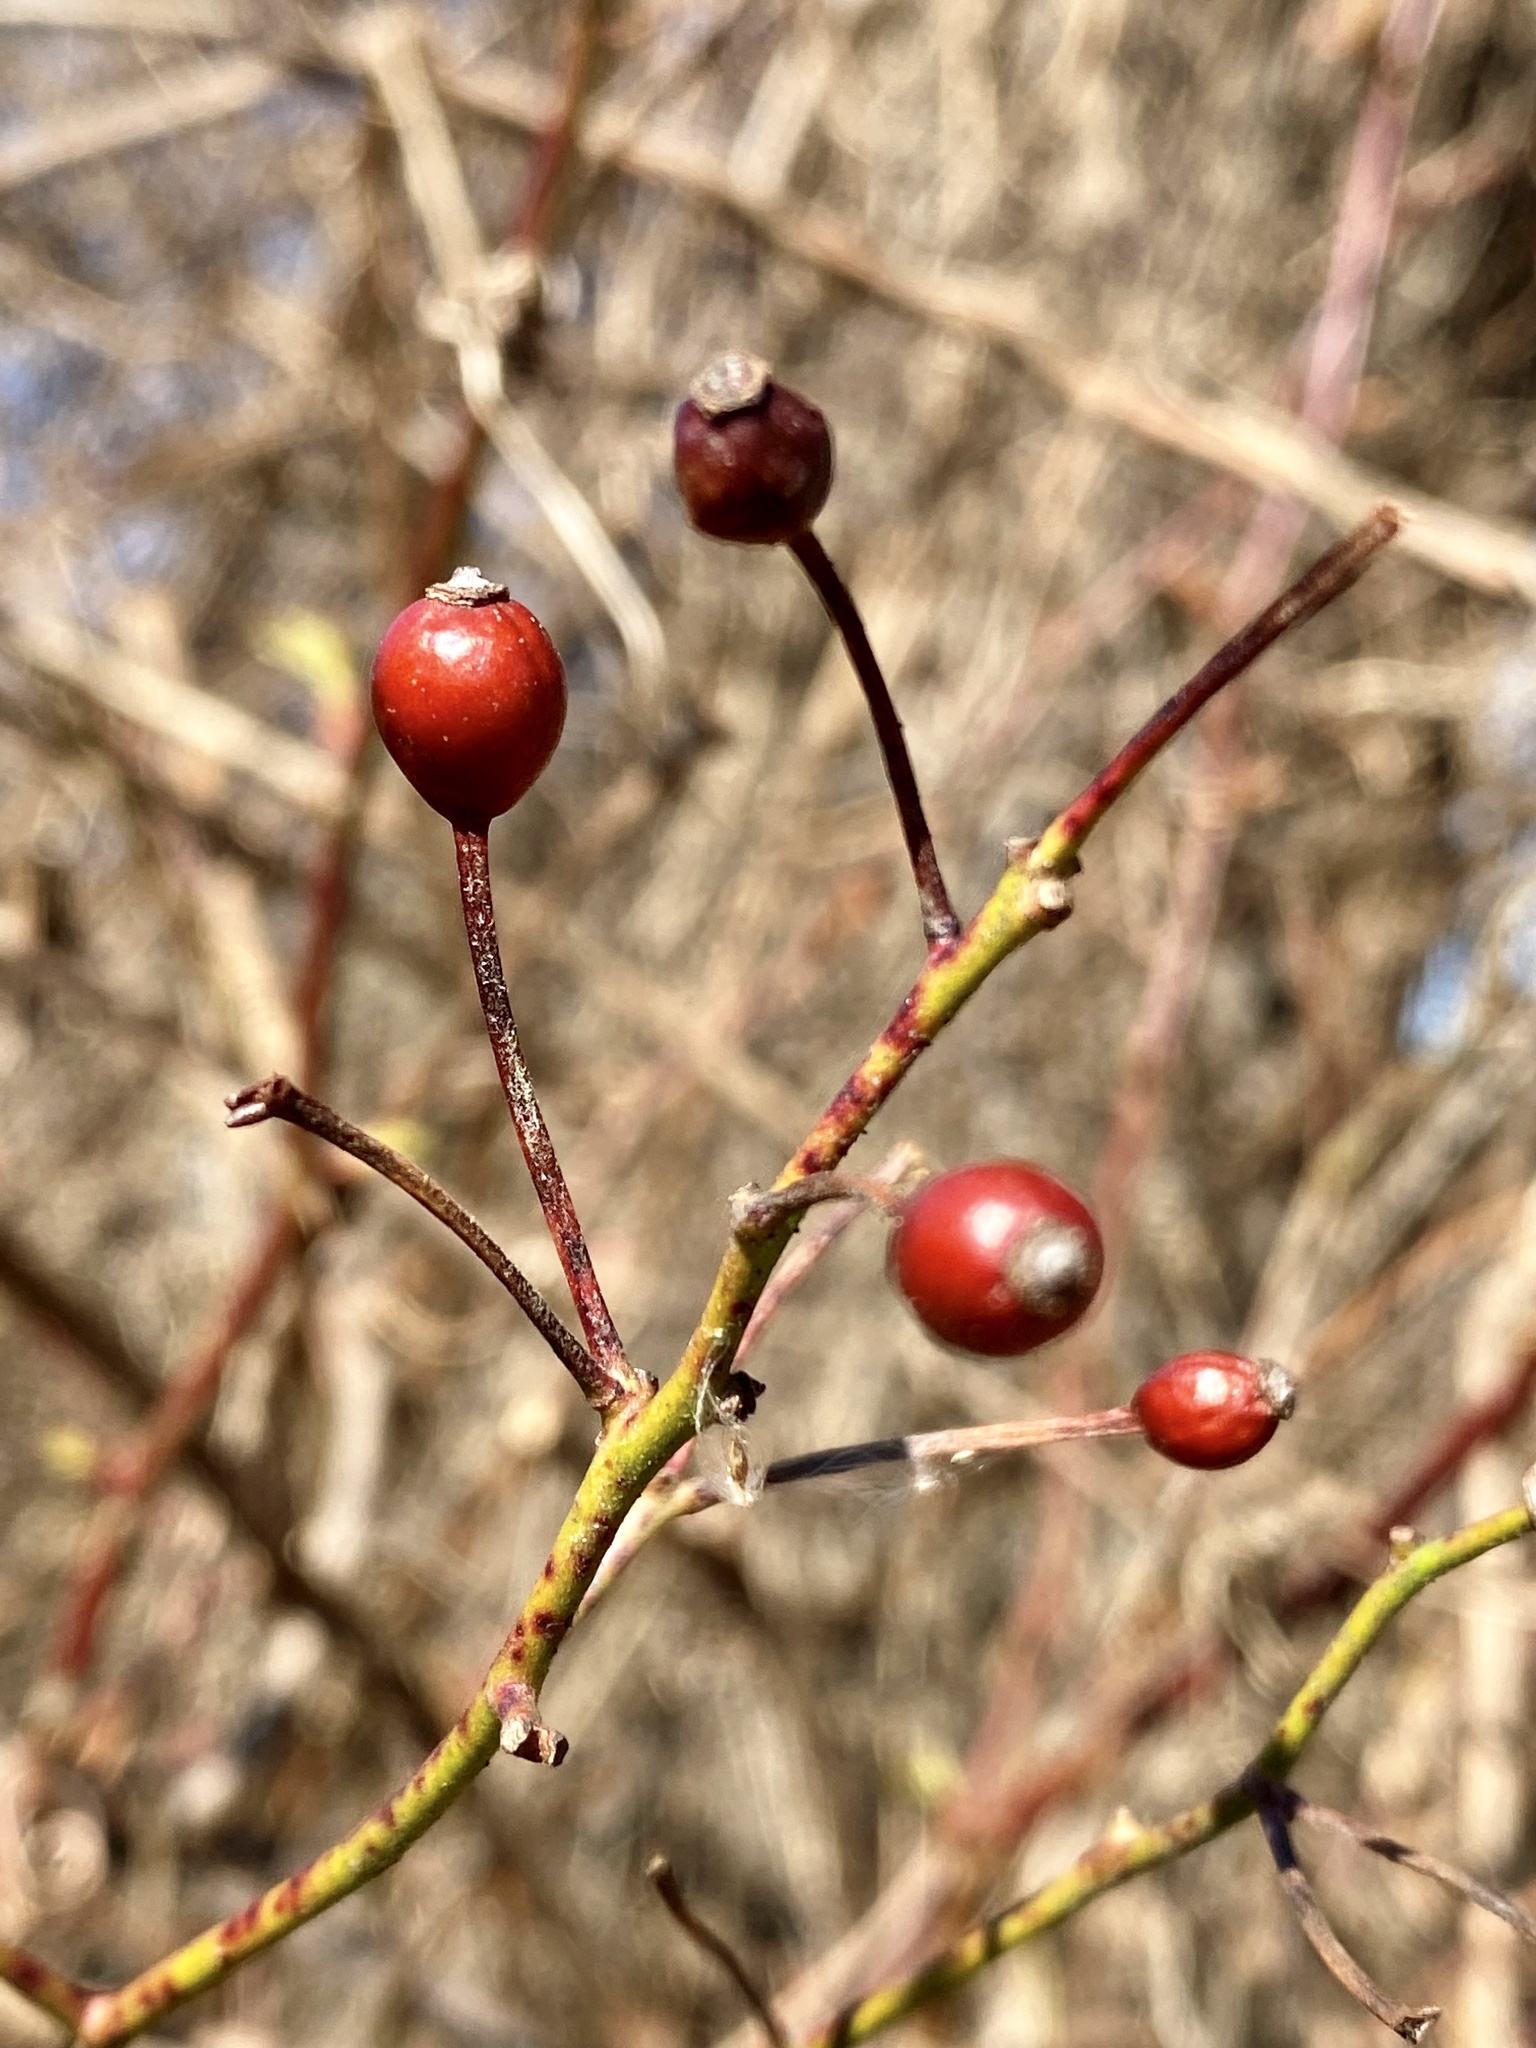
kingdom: Plantae
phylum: Tracheophyta
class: Magnoliopsida
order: Rosales
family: Rosaceae
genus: Rosa
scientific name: Rosa multiflora
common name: Multiflora rose
